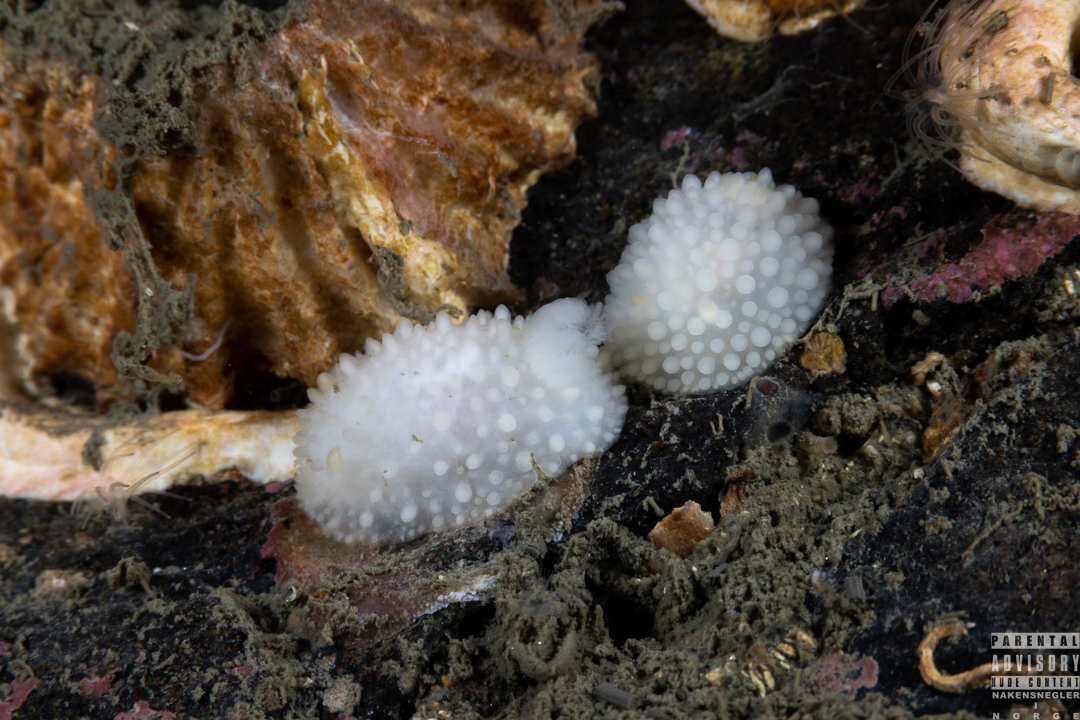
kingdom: Animalia
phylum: Mollusca
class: Gastropoda
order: Nudibranchia
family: Onchidorididae
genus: Adalaria
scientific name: Adalaria proxima
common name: False doris
